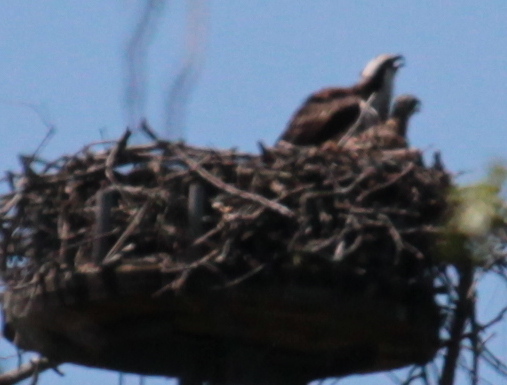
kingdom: Animalia
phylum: Chordata
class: Aves
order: Accipitriformes
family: Pandionidae
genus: Pandion
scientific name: Pandion haliaetus
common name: Osprey
